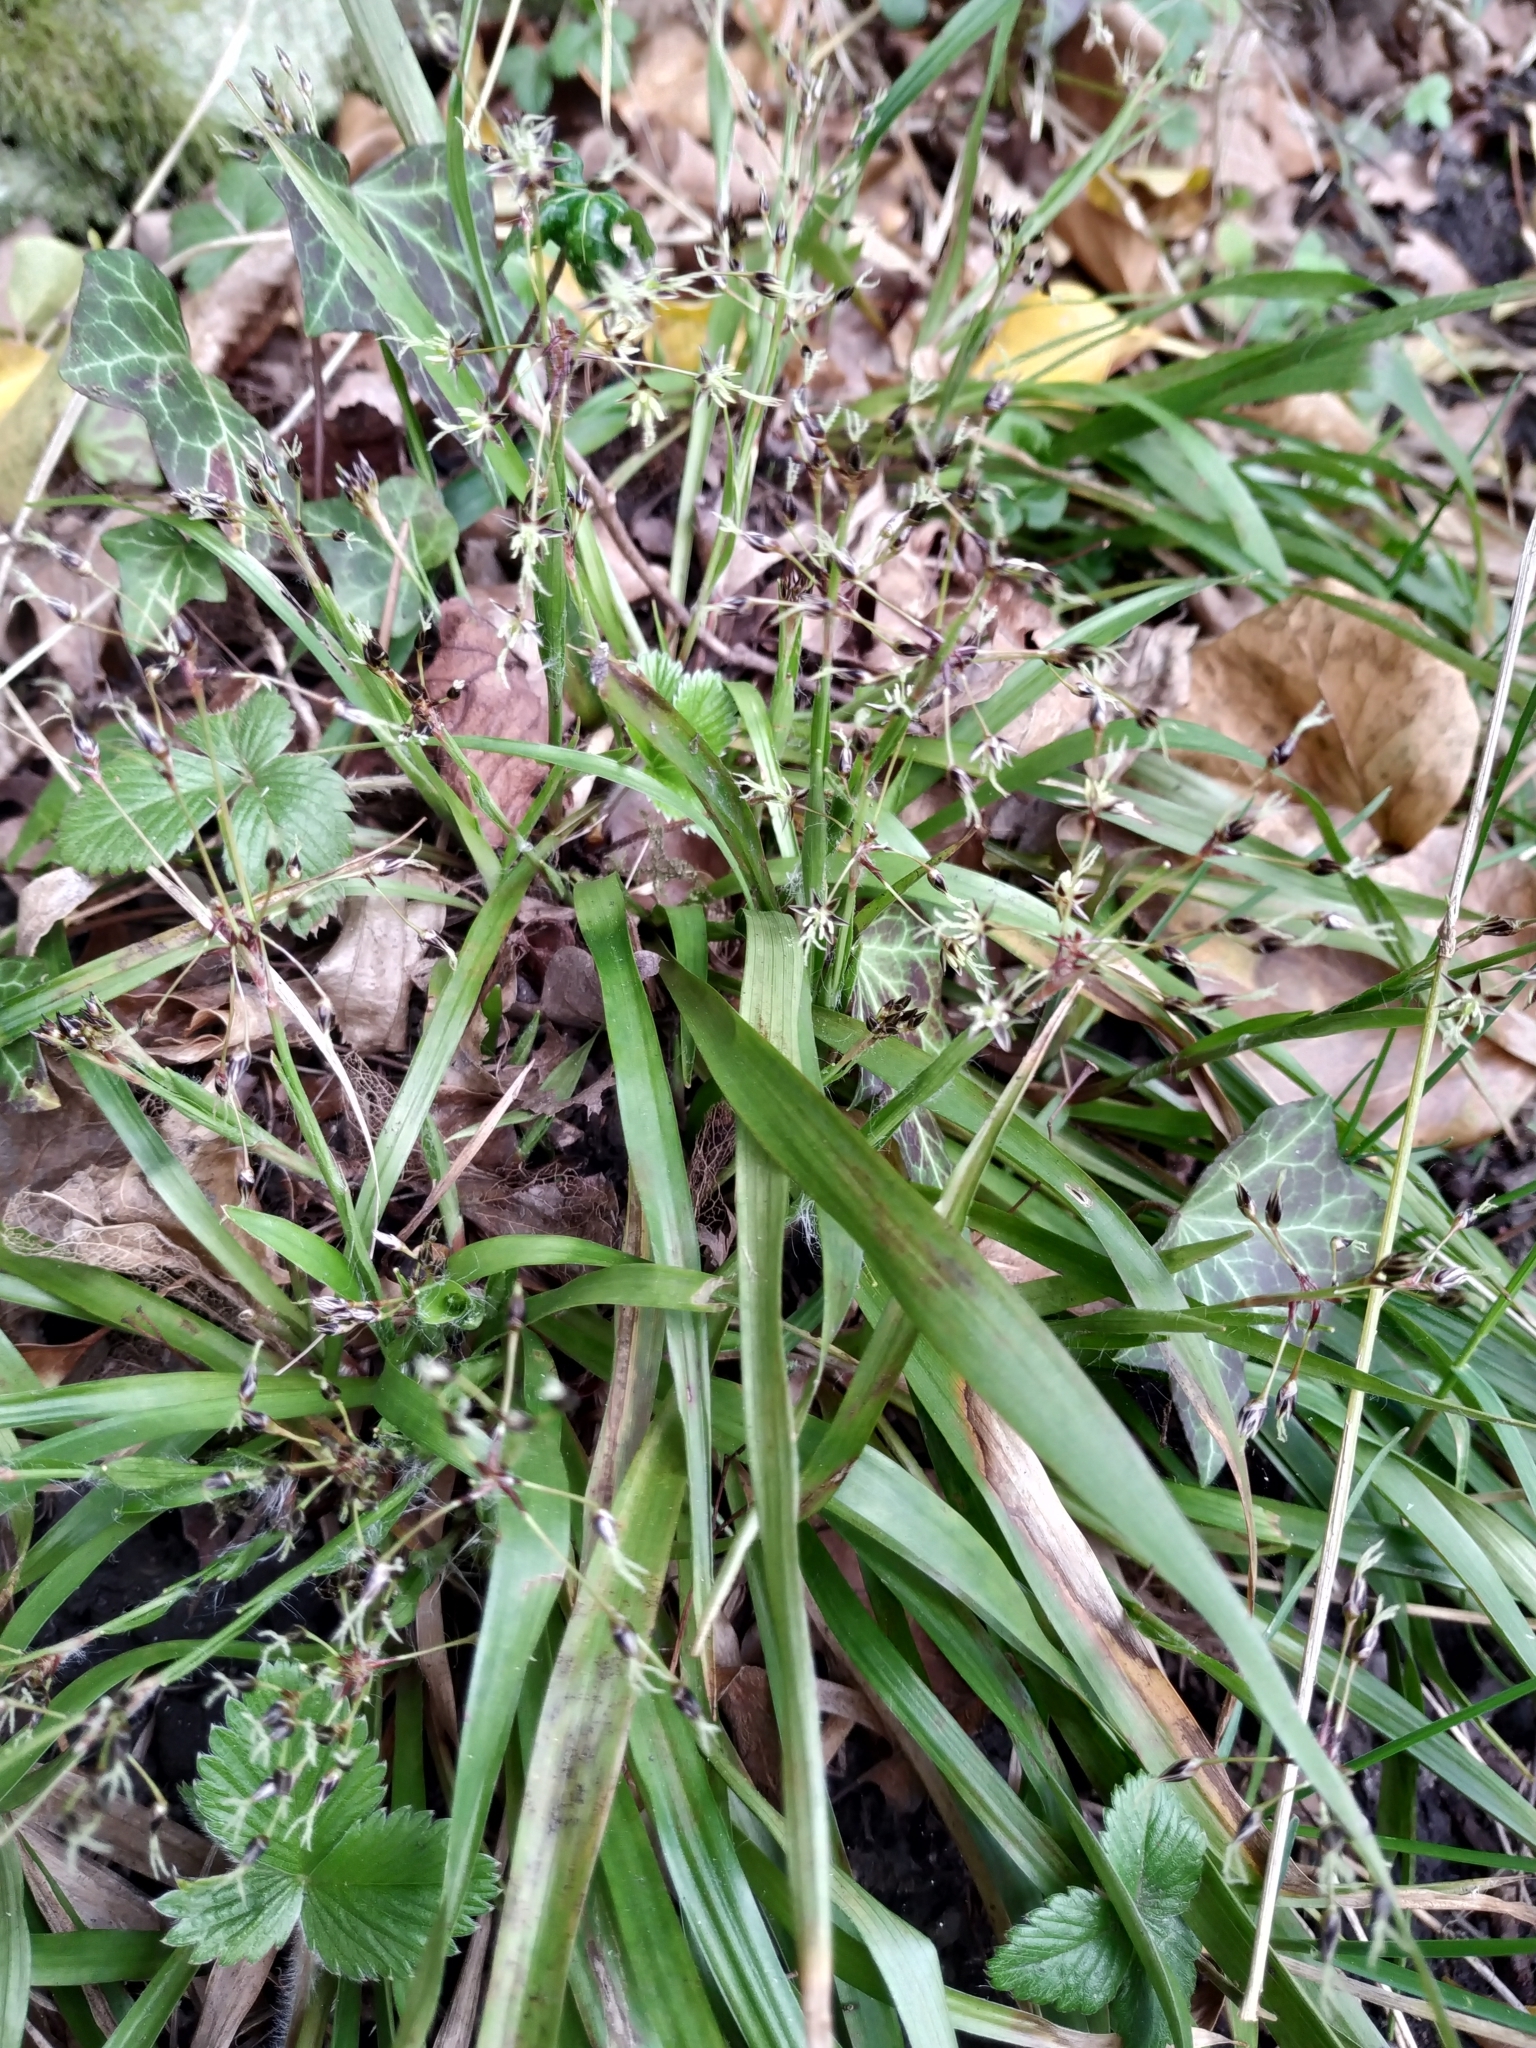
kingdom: Plantae
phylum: Tracheophyta
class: Liliopsida
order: Poales
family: Juncaceae
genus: Luzula
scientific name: Luzula pilosa
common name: Hairy wood-rush
